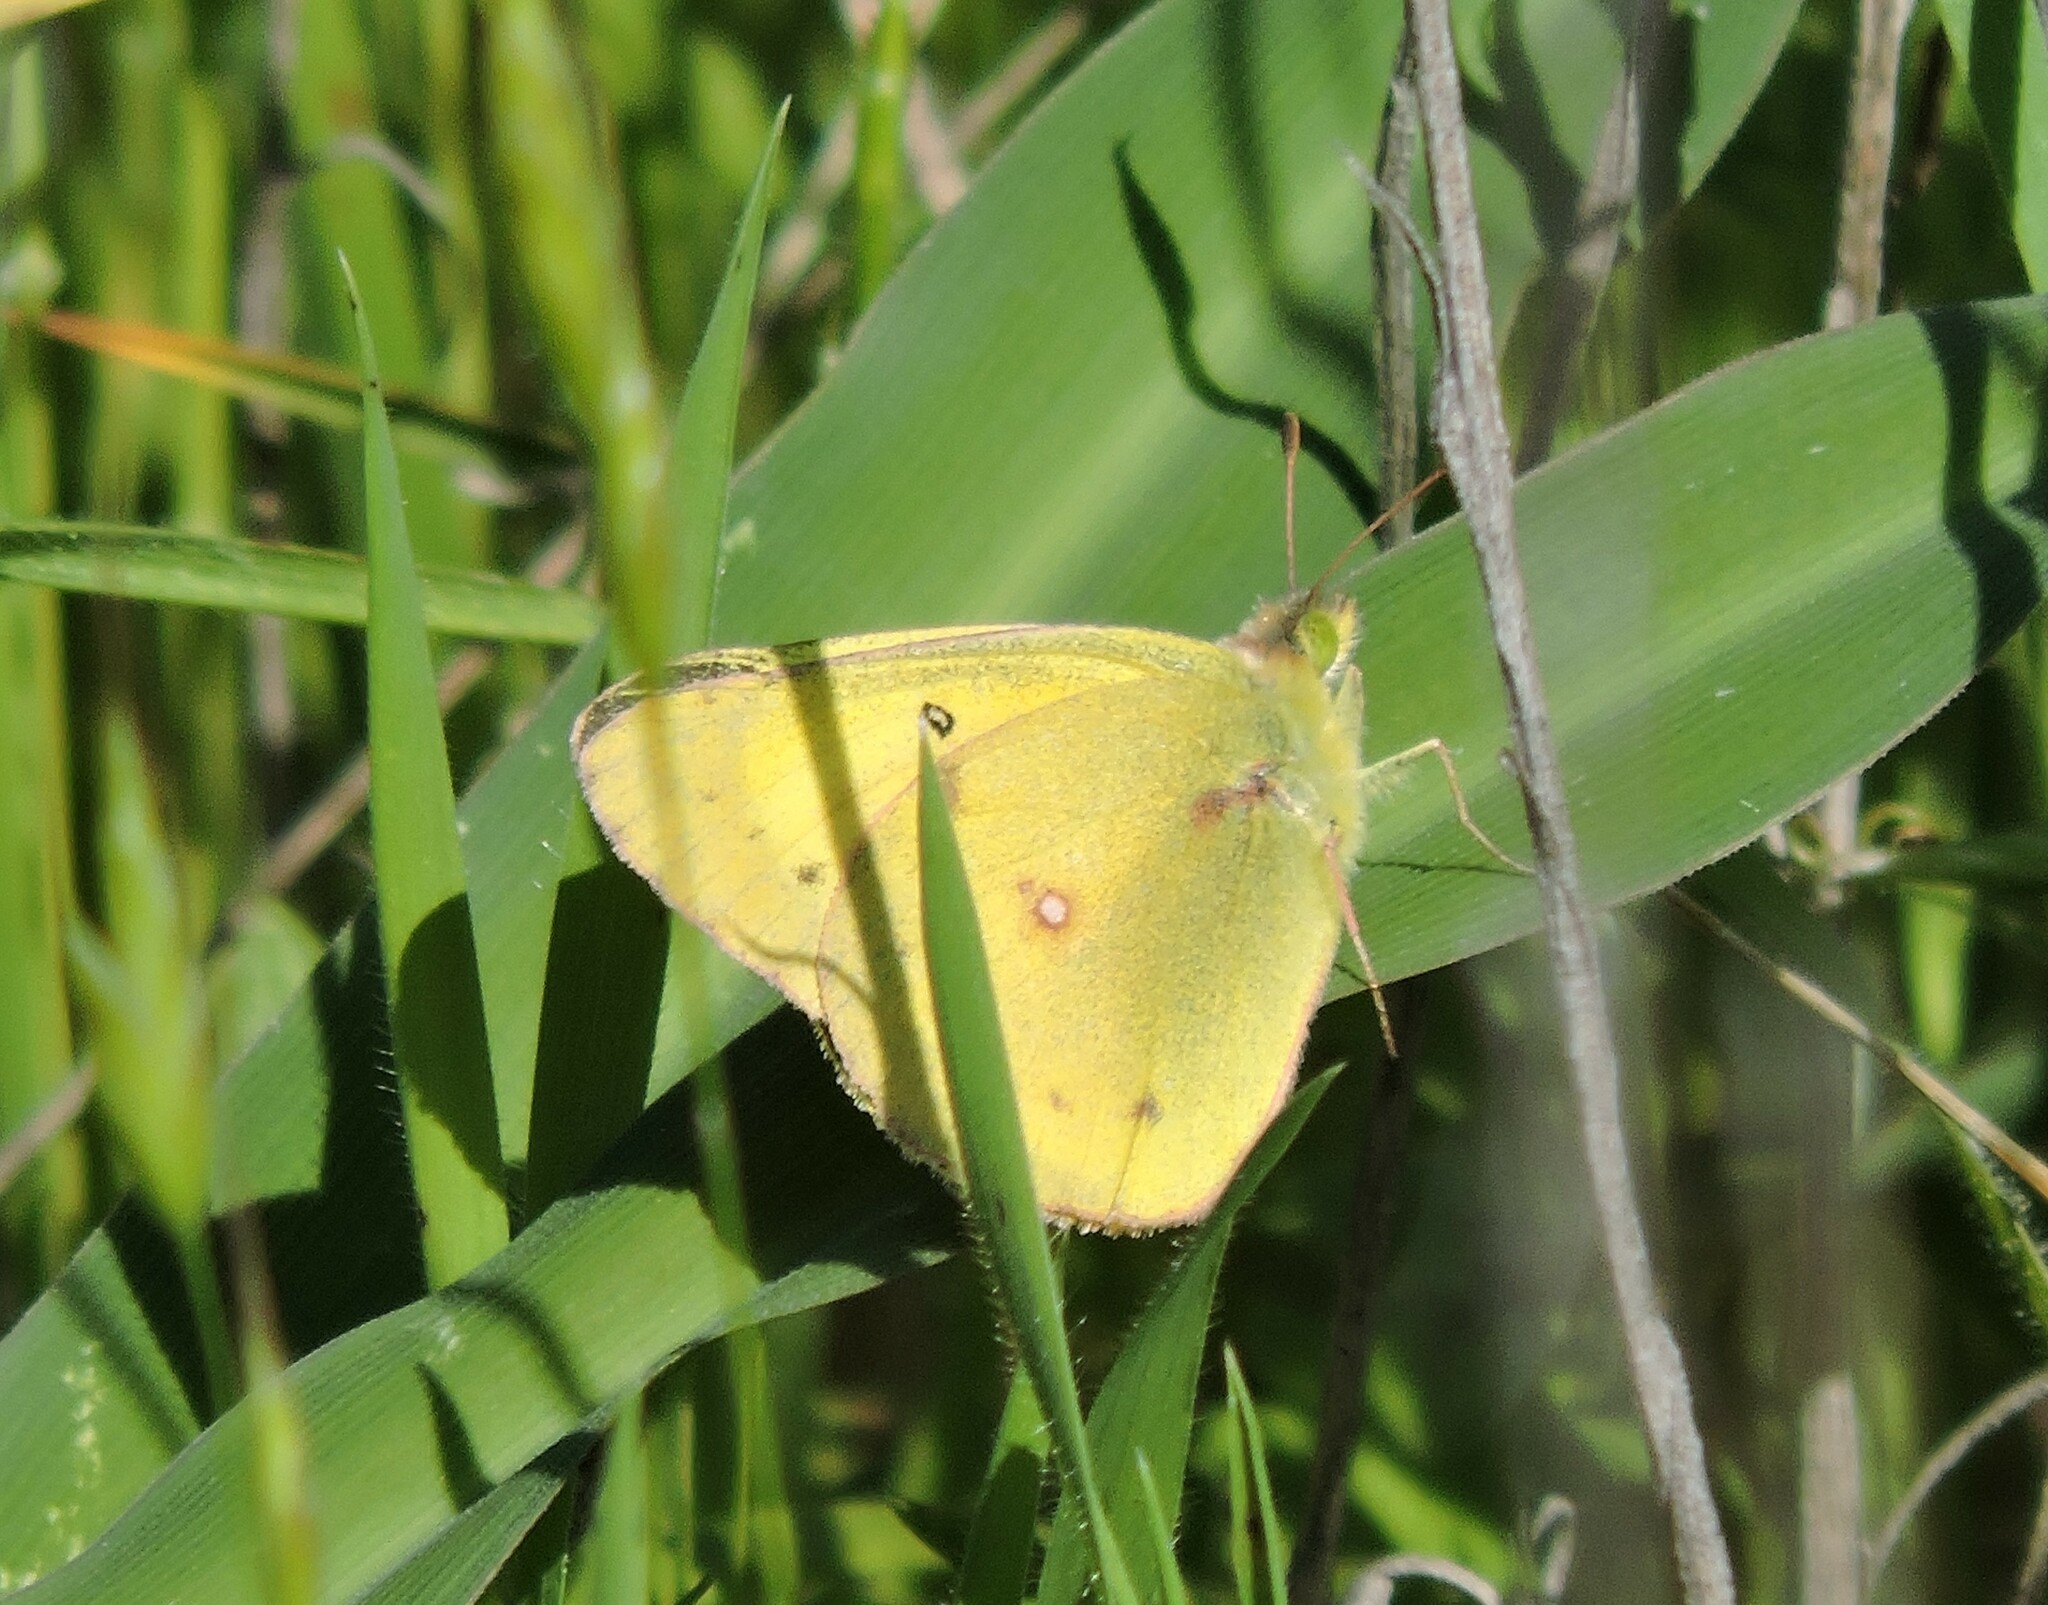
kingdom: Animalia
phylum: Arthropoda
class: Insecta
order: Lepidoptera
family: Pieridae
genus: Colias
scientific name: Colias eurytheme
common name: Alfalfa butterfly
